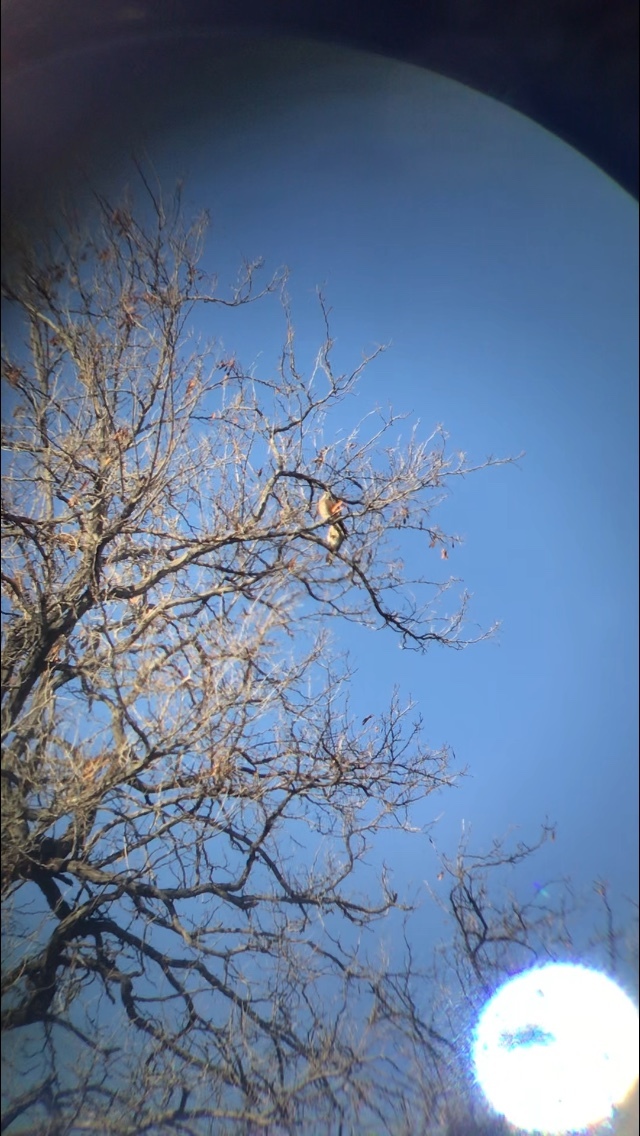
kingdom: Animalia
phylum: Chordata
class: Aves
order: Falconiformes
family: Falconidae
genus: Falco
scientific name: Falco sparverius
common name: American kestrel
